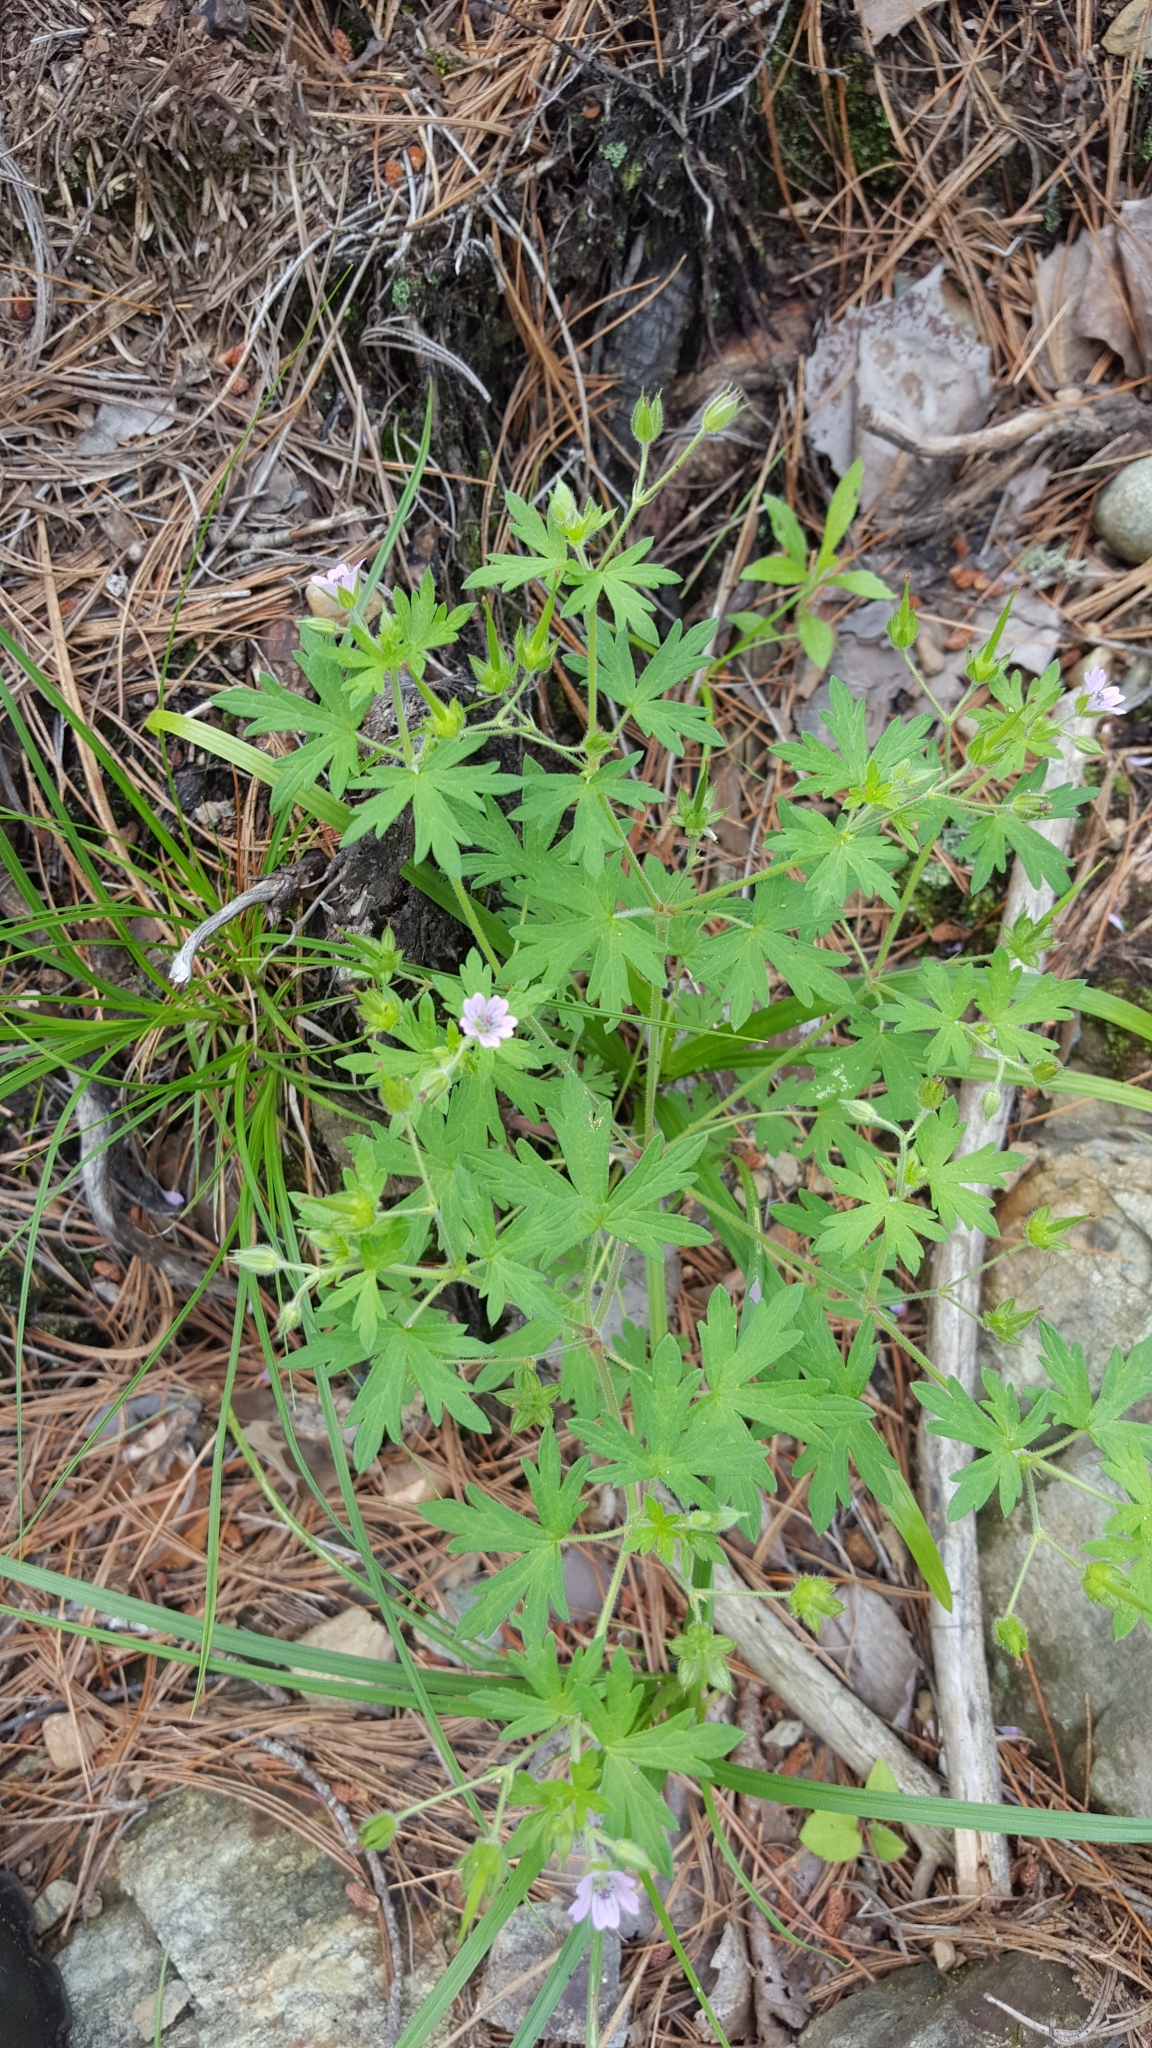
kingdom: Plantae
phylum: Tracheophyta
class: Magnoliopsida
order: Geraniales
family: Geraniaceae
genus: Geranium
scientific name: Geranium bicknellii
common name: Bicknell's cranesbill
